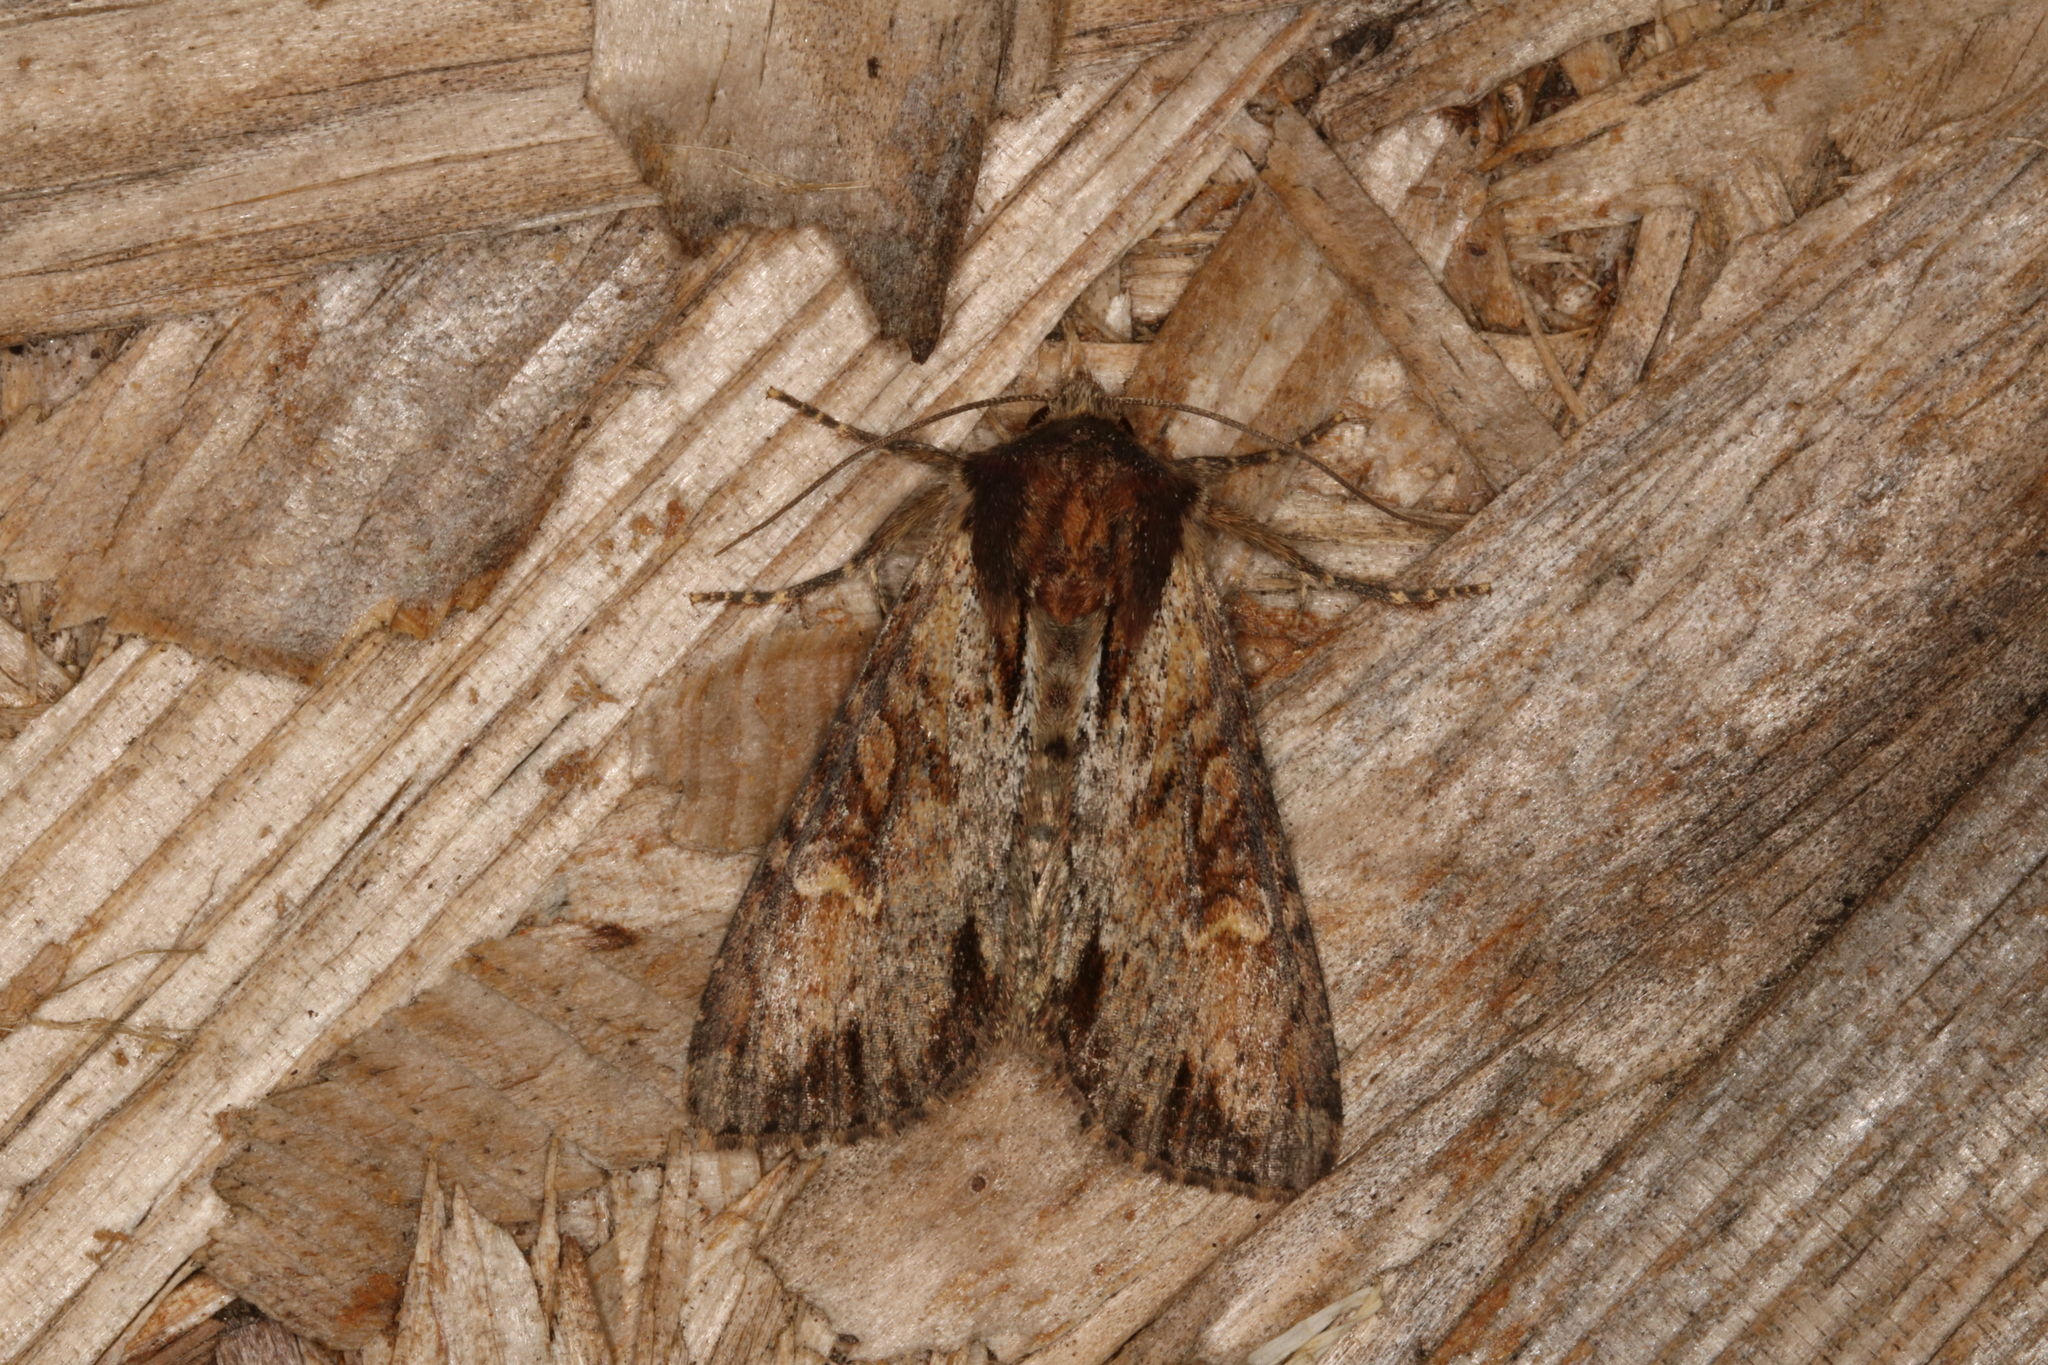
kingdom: Animalia
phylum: Arthropoda
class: Insecta
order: Lepidoptera
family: Noctuidae
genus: Apamea
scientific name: Apamea crenata
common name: Clouded-bordered brindle
